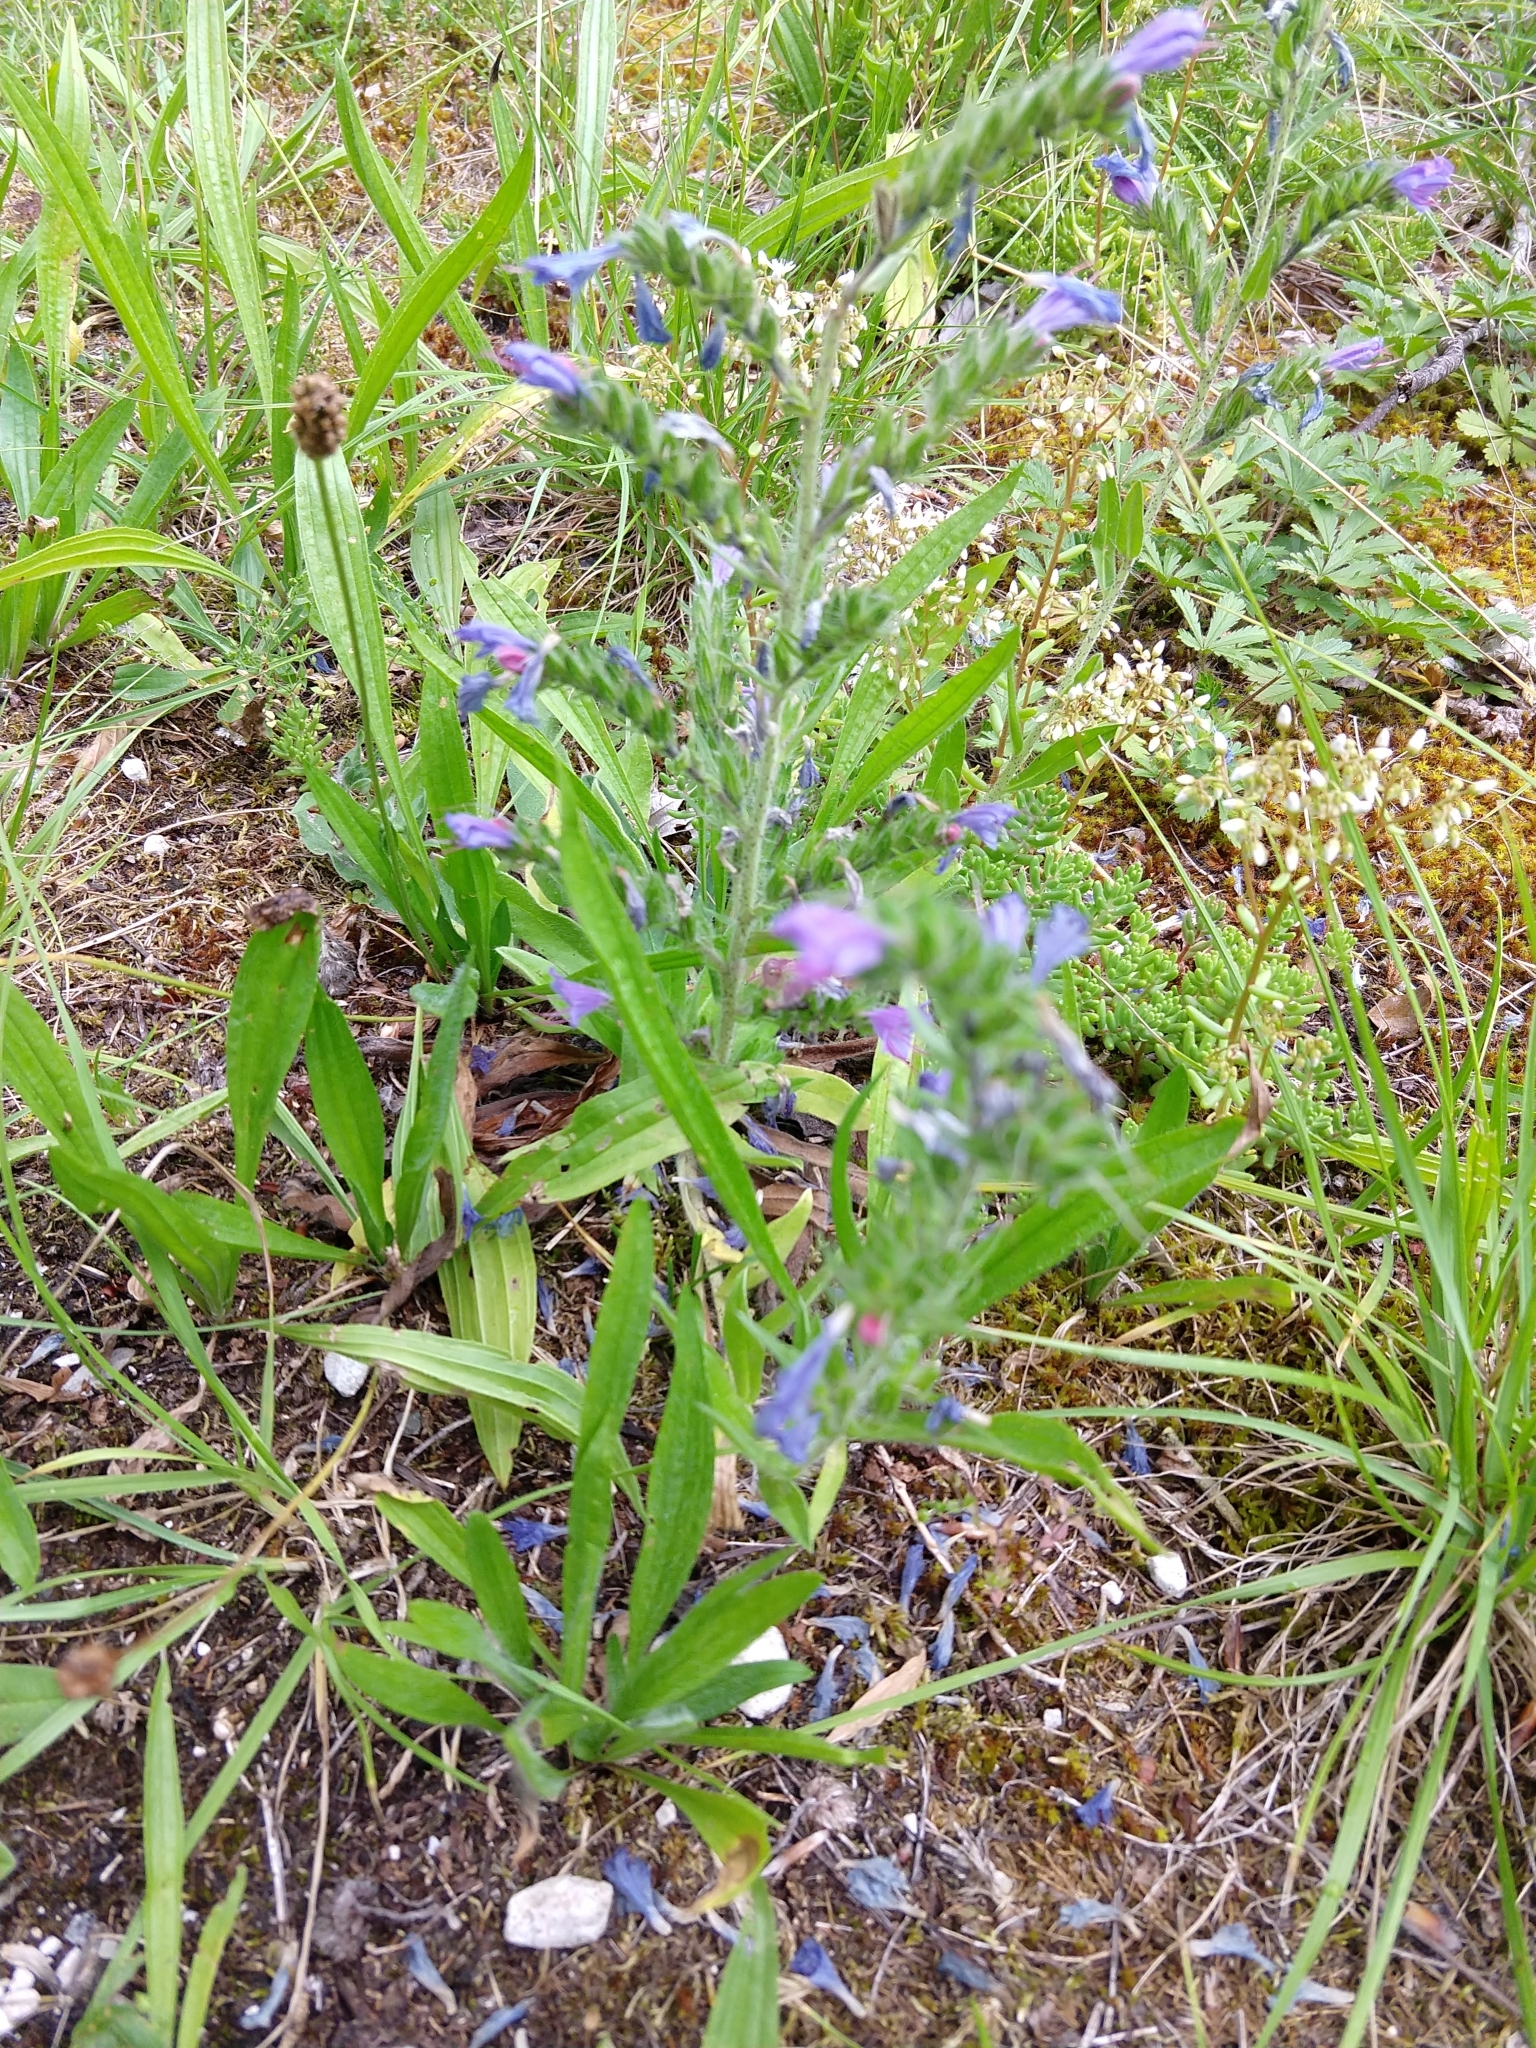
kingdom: Plantae
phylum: Tracheophyta
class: Magnoliopsida
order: Boraginales
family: Boraginaceae
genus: Echium
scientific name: Echium vulgare
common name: Common viper's bugloss
